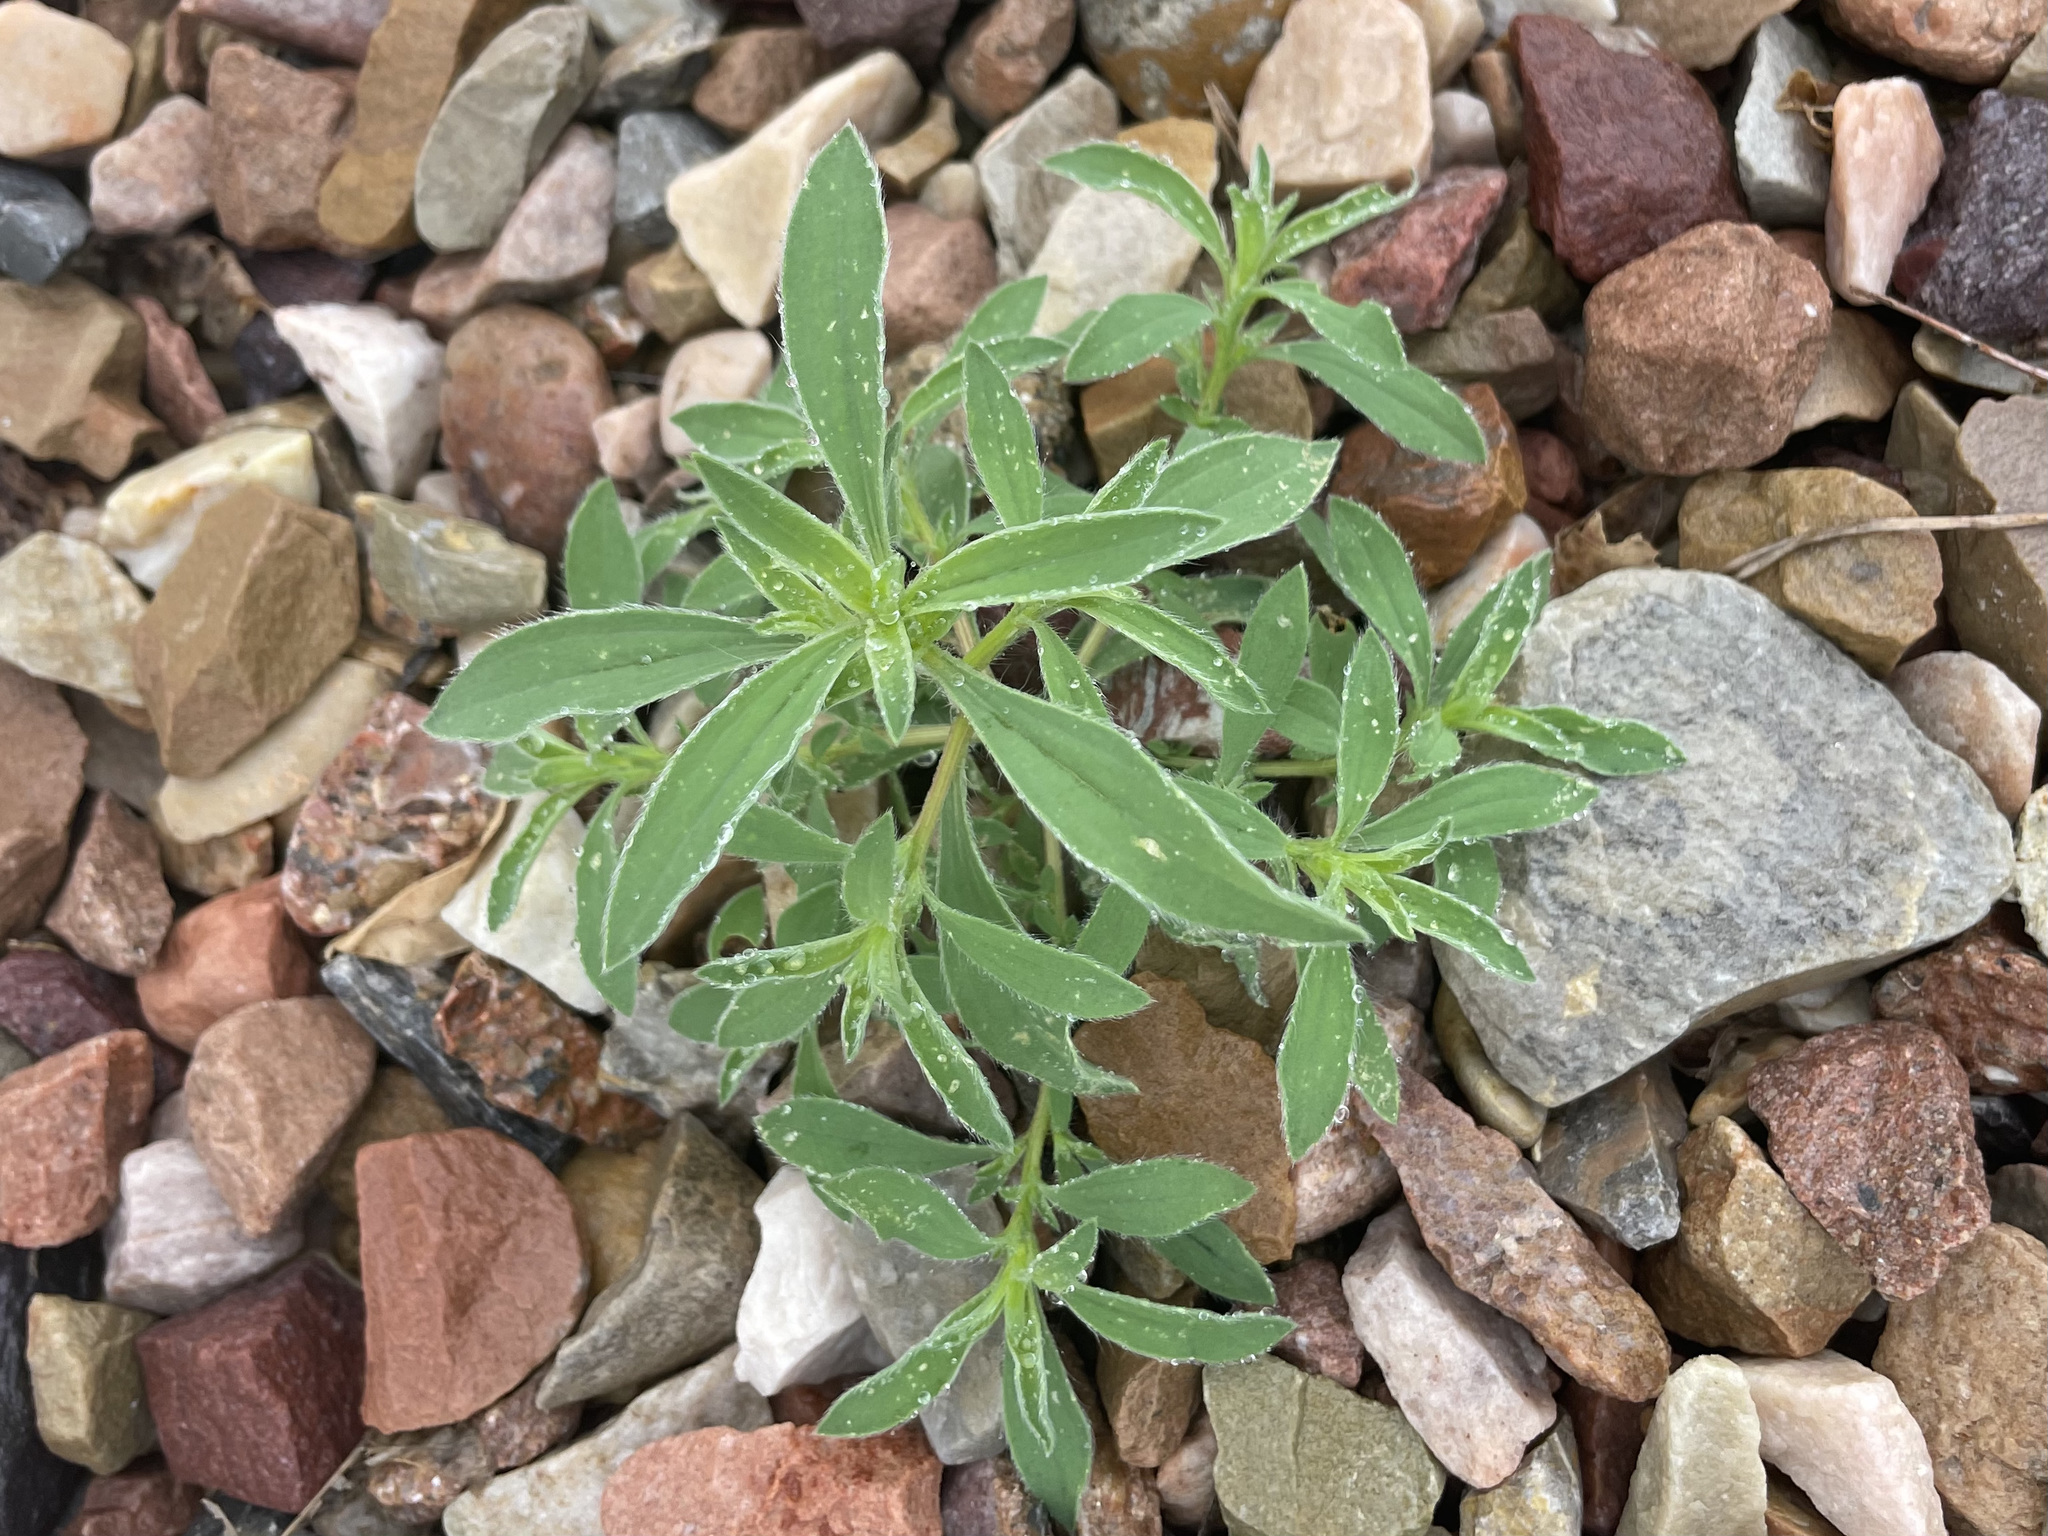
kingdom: Plantae
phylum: Tracheophyta
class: Magnoliopsida
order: Caryophyllales
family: Amaranthaceae
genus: Bassia
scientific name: Bassia scoparia
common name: Belvedere
